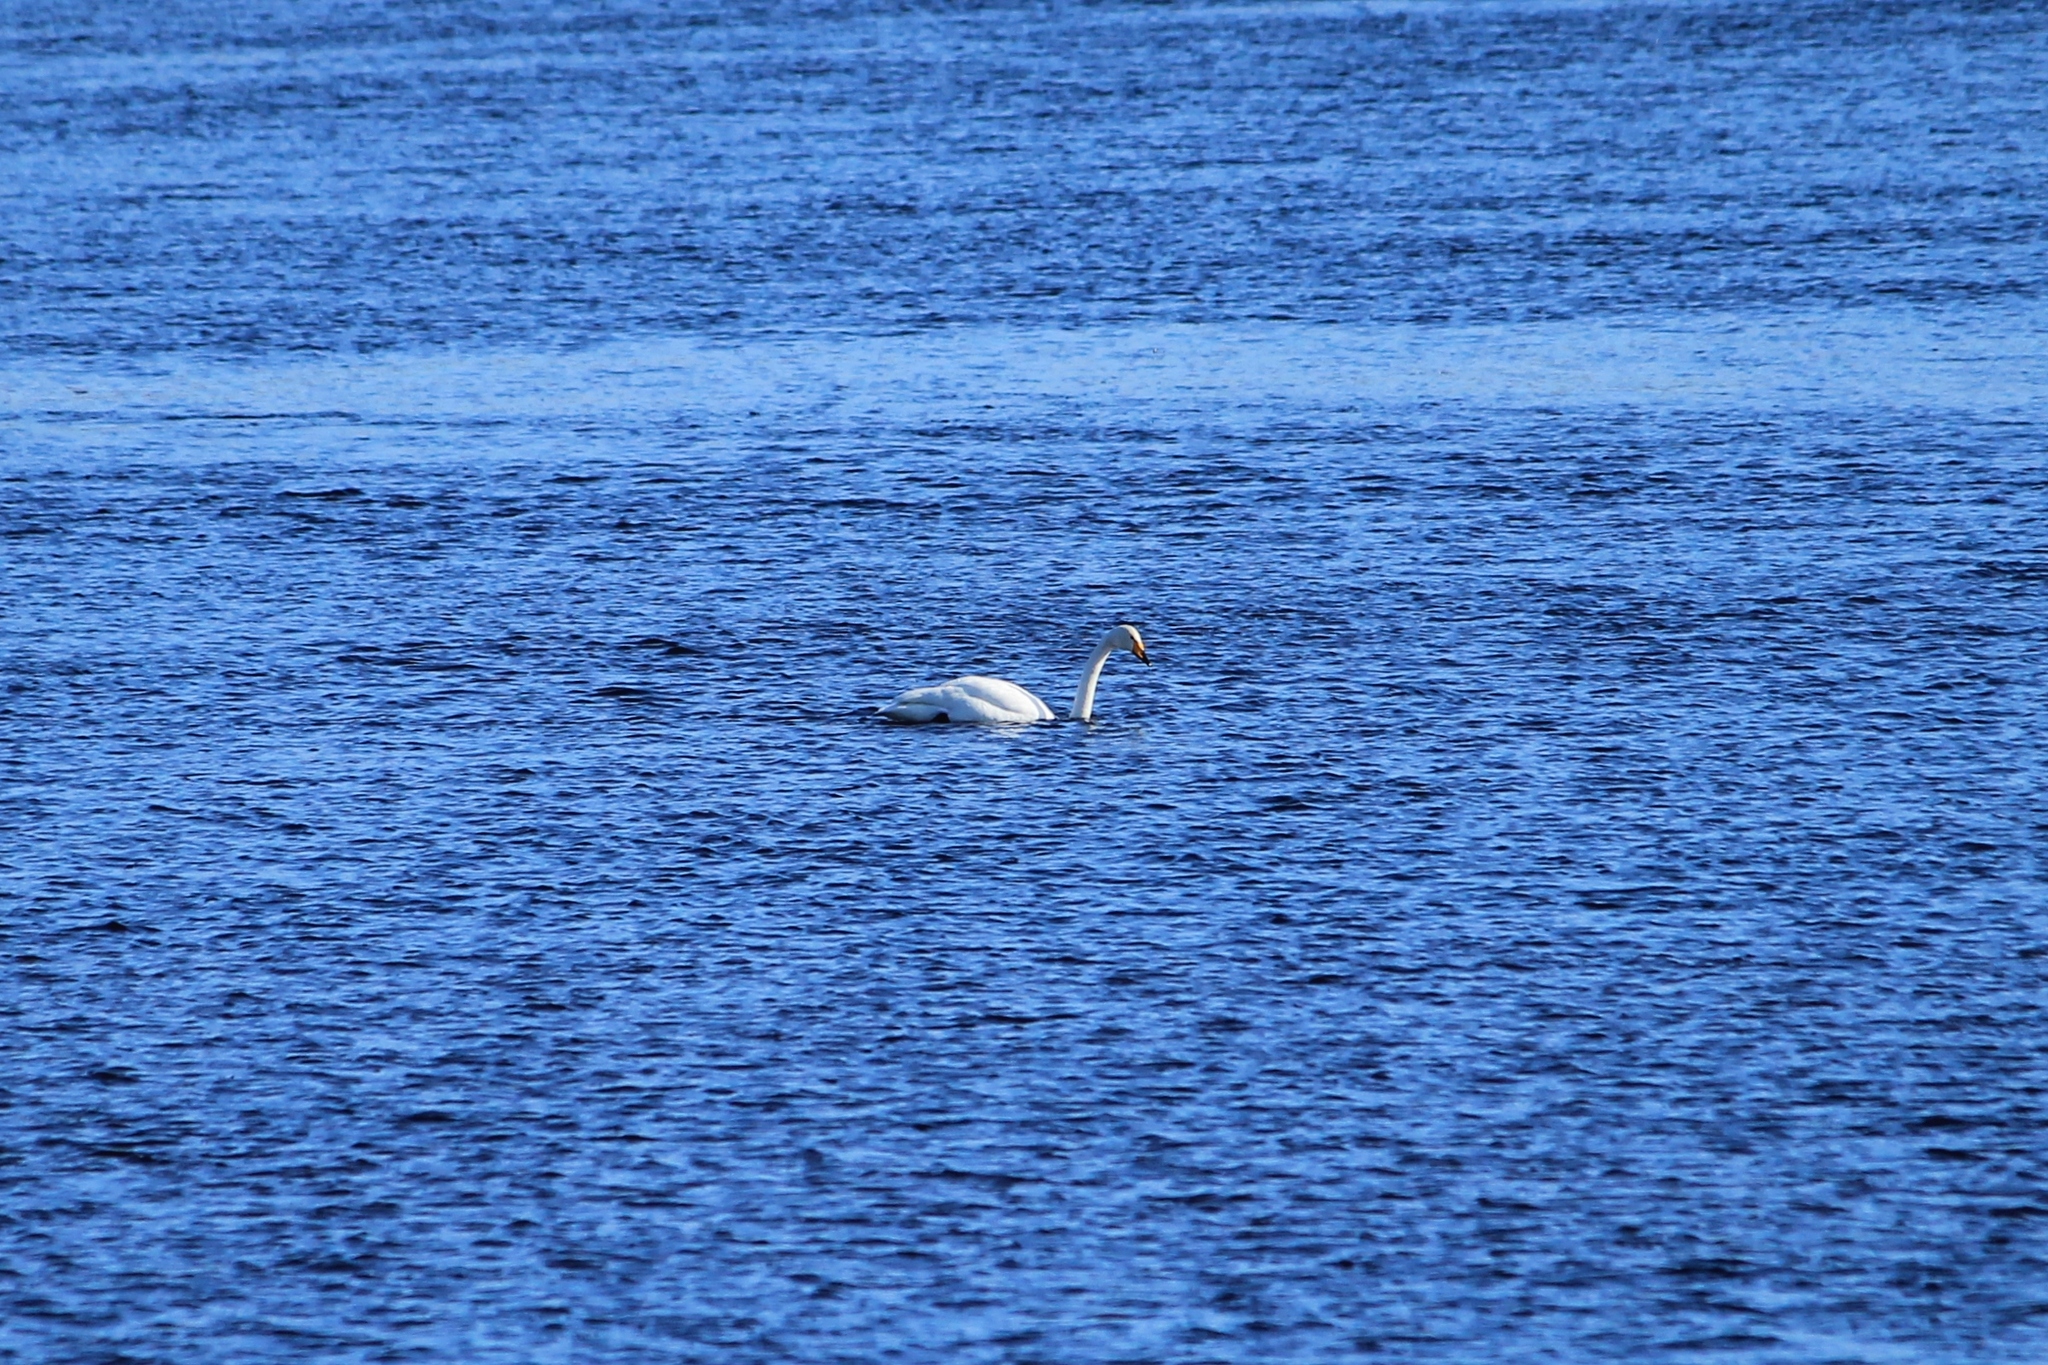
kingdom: Animalia
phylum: Chordata
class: Aves
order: Anseriformes
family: Anatidae
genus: Cygnus
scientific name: Cygnus cygnus
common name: Whooper swan
